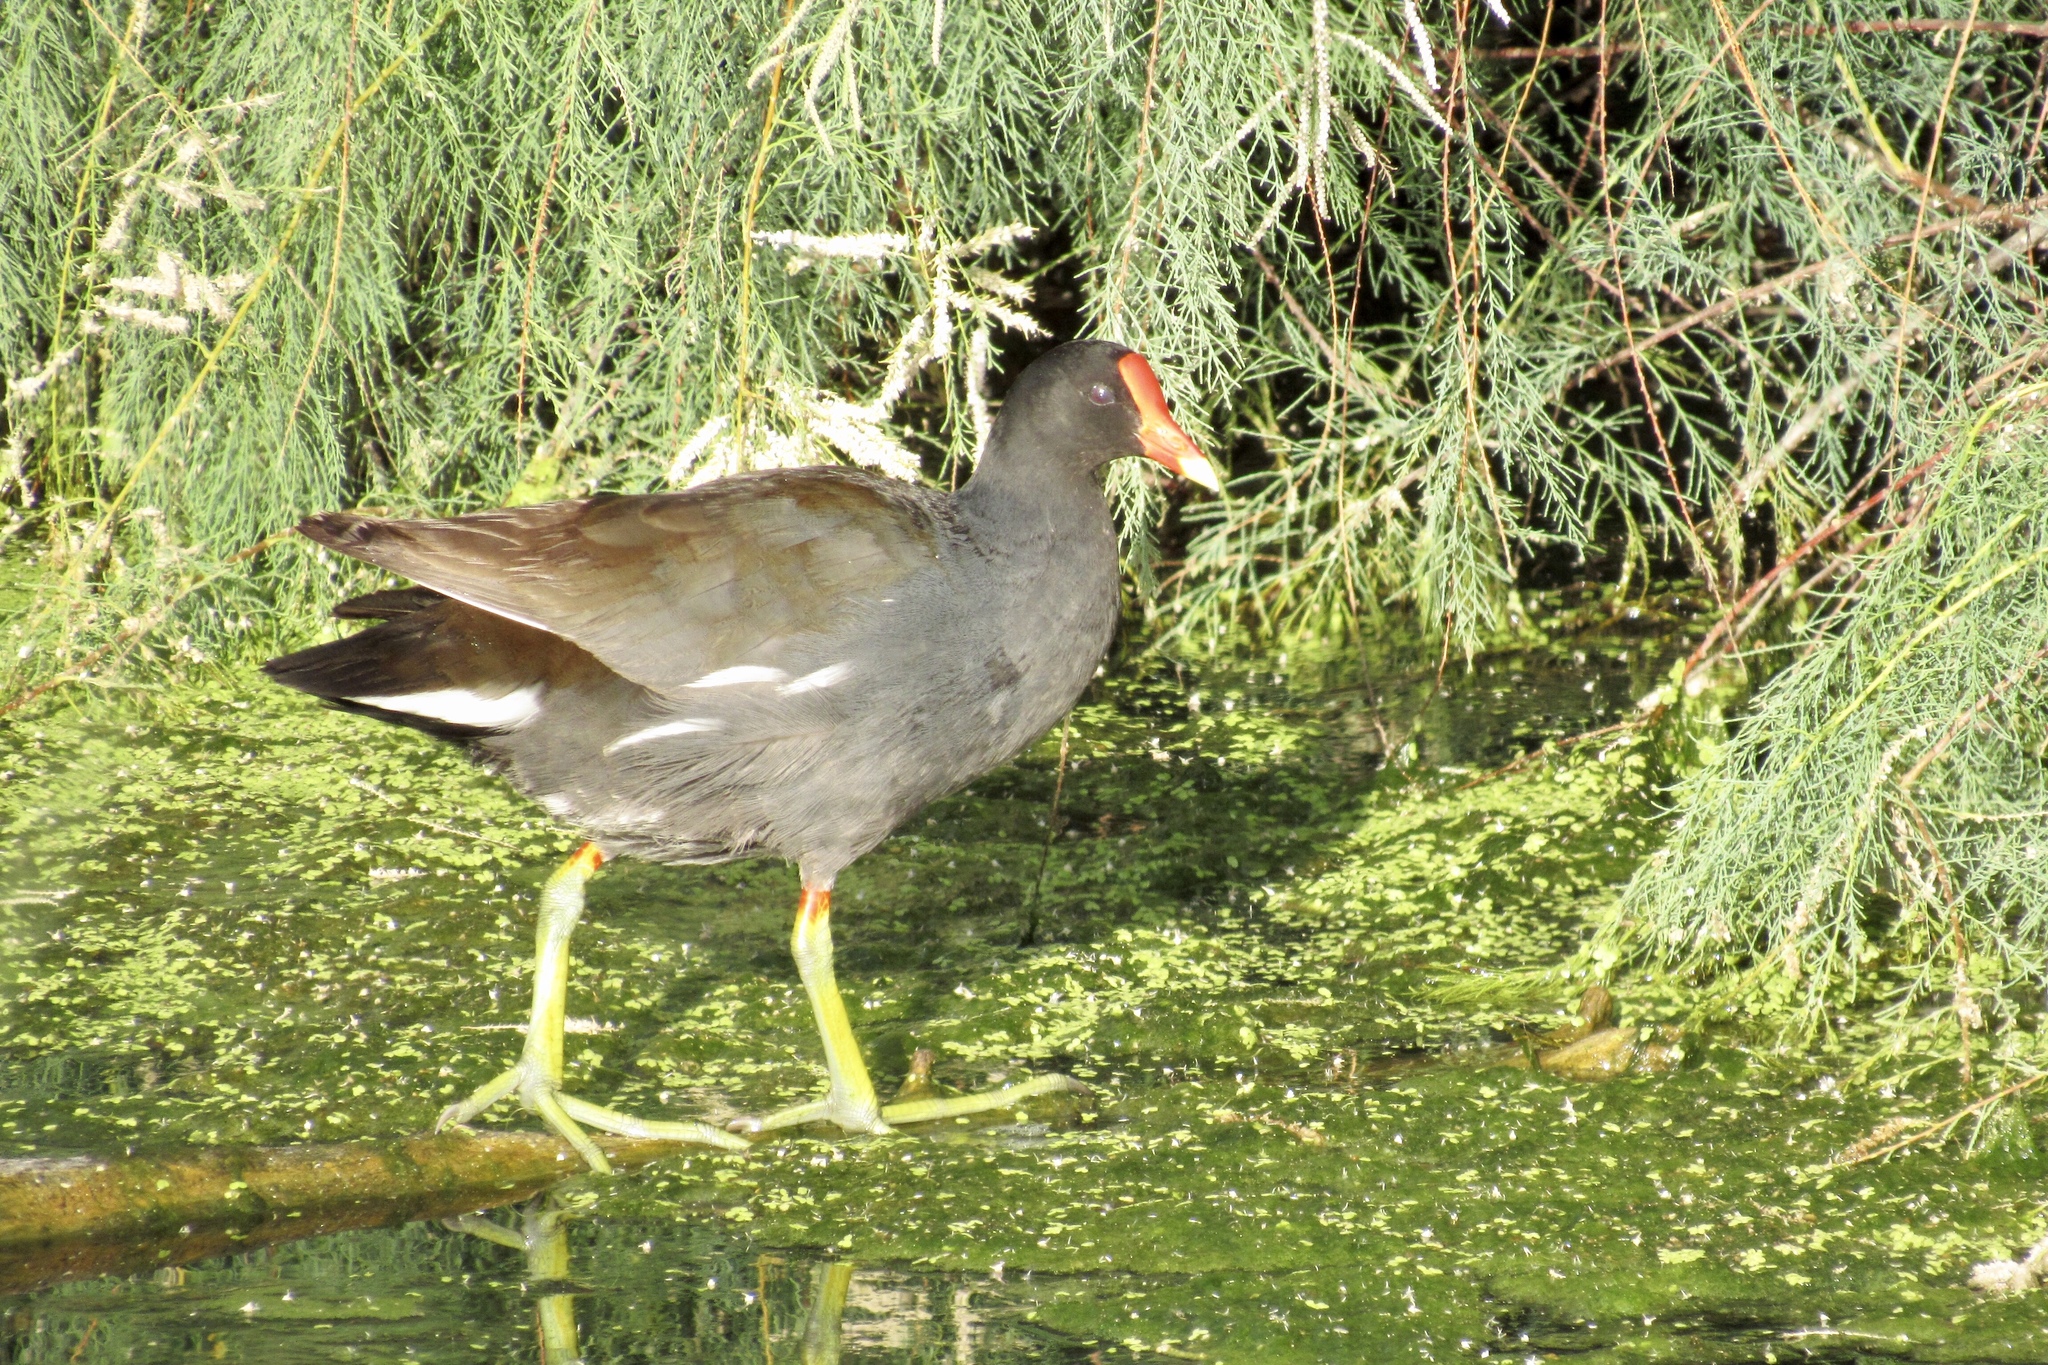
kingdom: Animalia
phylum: Chordata
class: Aves
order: Gruiformes
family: Rallidae
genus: Gallinula
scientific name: Gallinula chloropus
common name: Common moorhen
